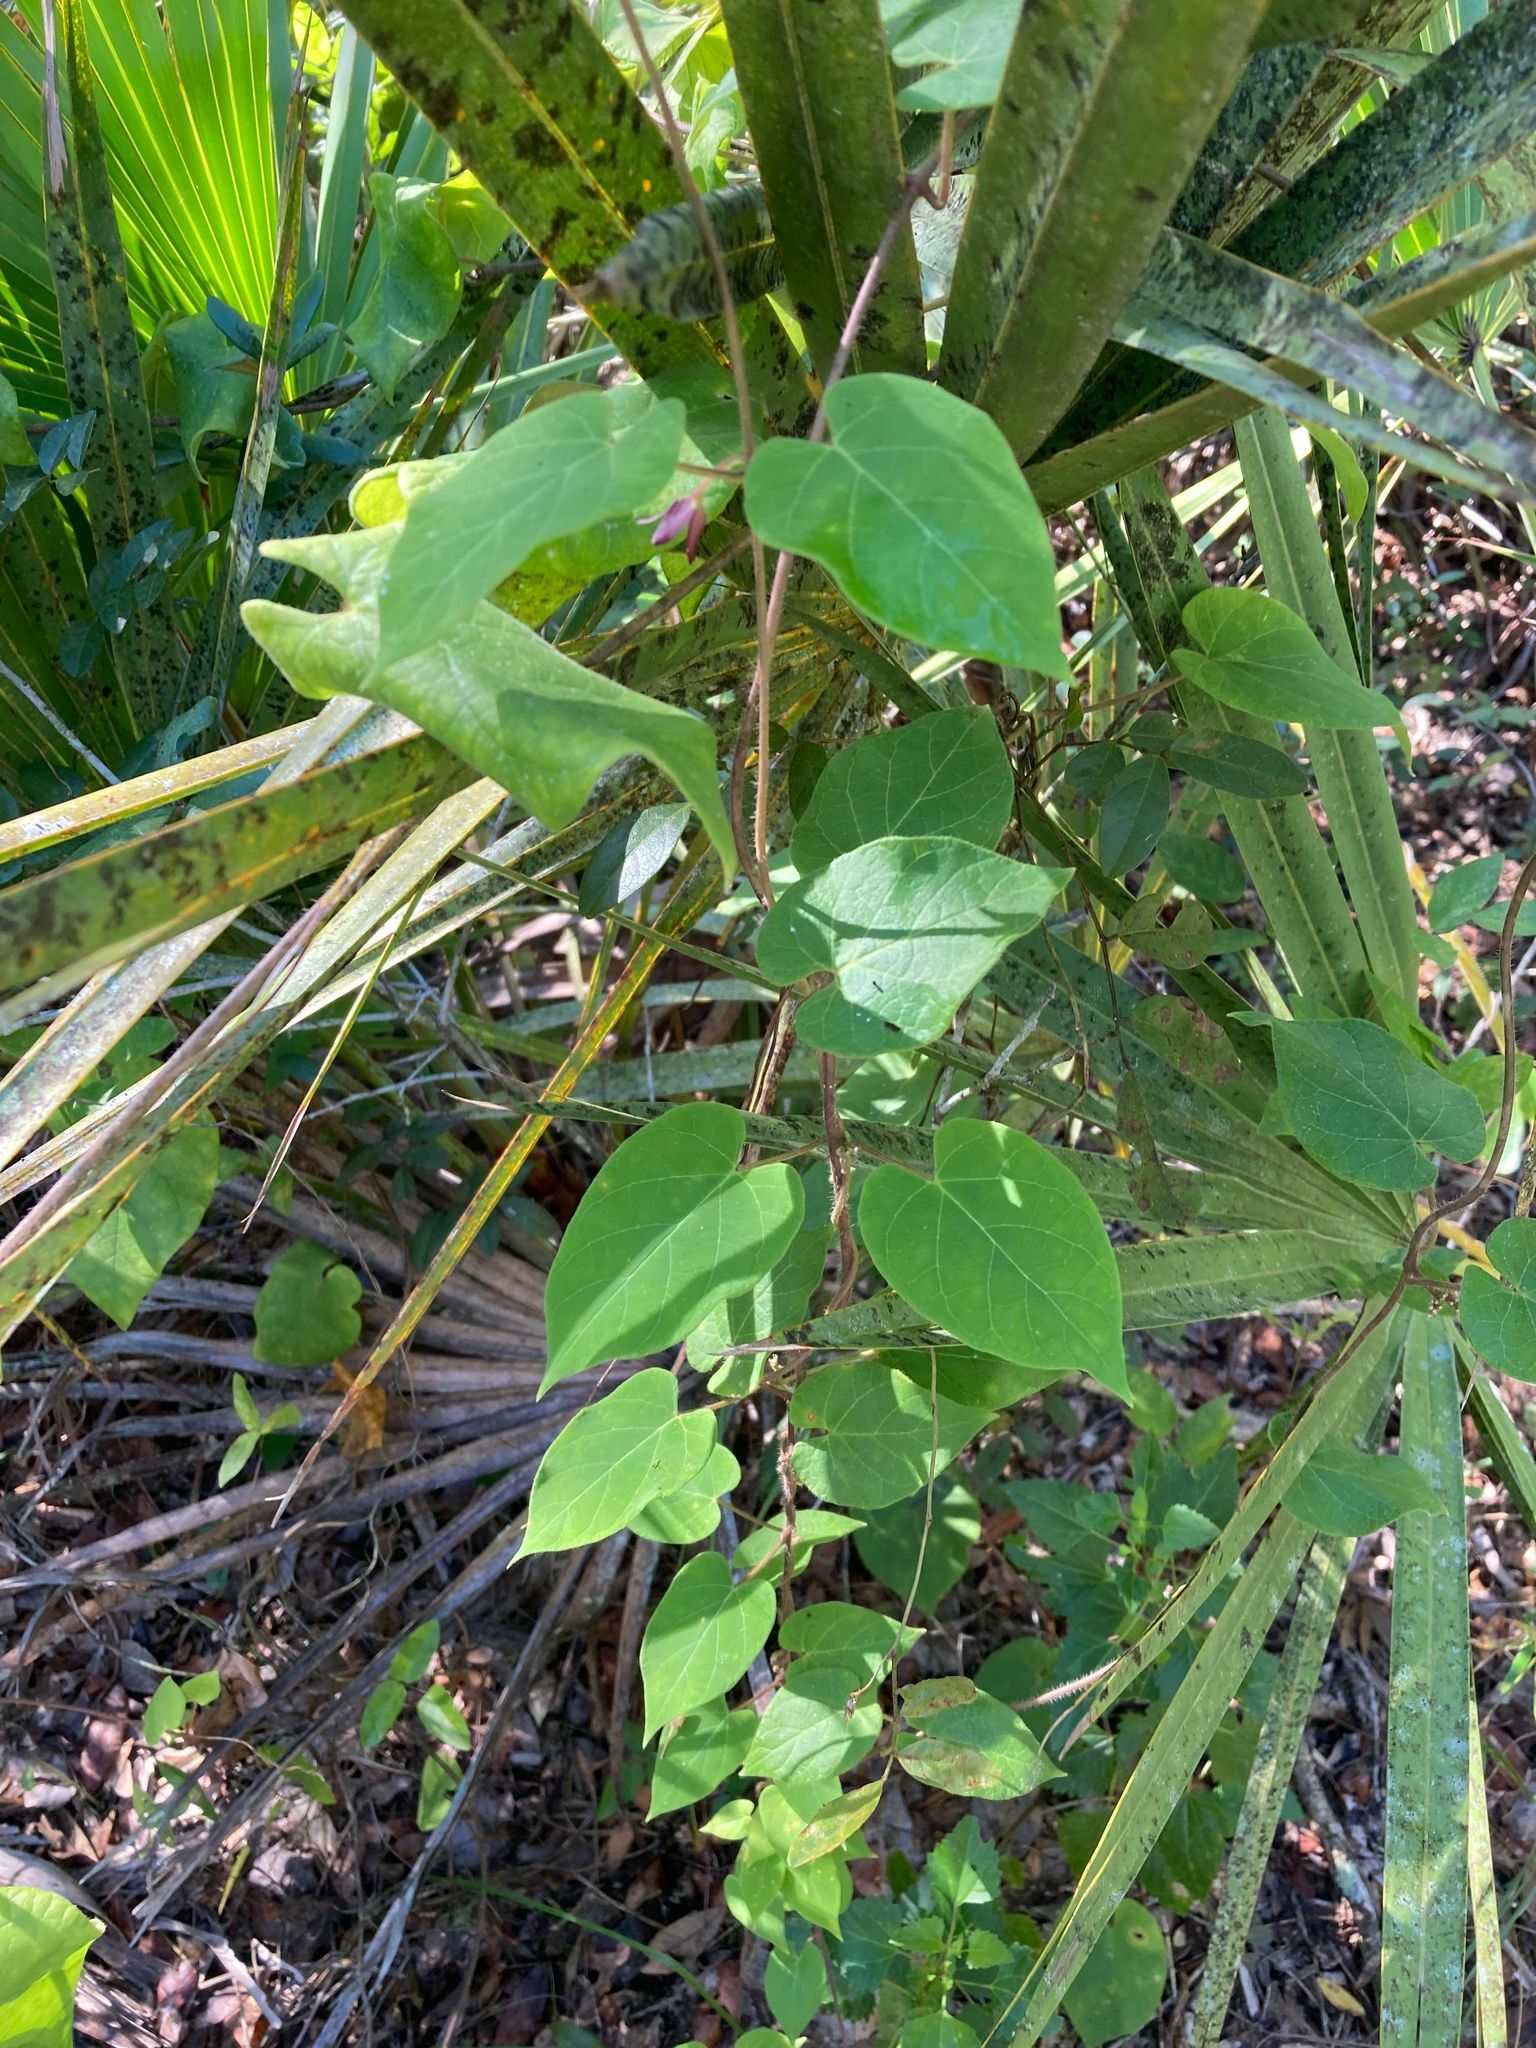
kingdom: Plantae
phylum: Tracheophyta
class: Magnoliopsida
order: Gentianales
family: Apocynaceae
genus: Matelea
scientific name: Matelea floridana
